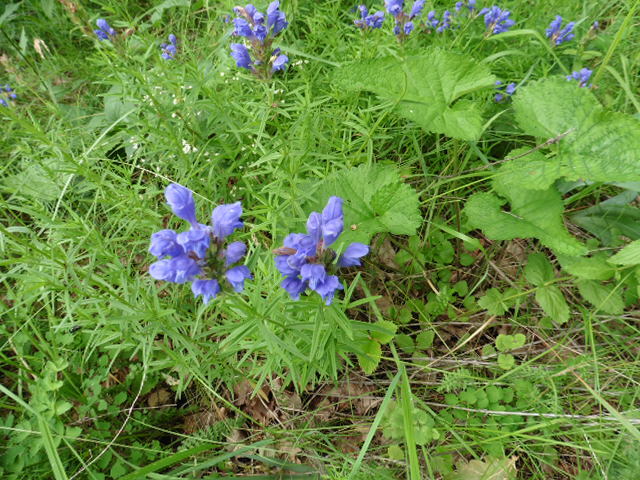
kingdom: Plantae
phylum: Tracheophyta
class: Magnoliopsida
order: Lamiales
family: Lamiaceae
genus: Dracocephalum
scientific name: Dracocephalum ruyschiana
